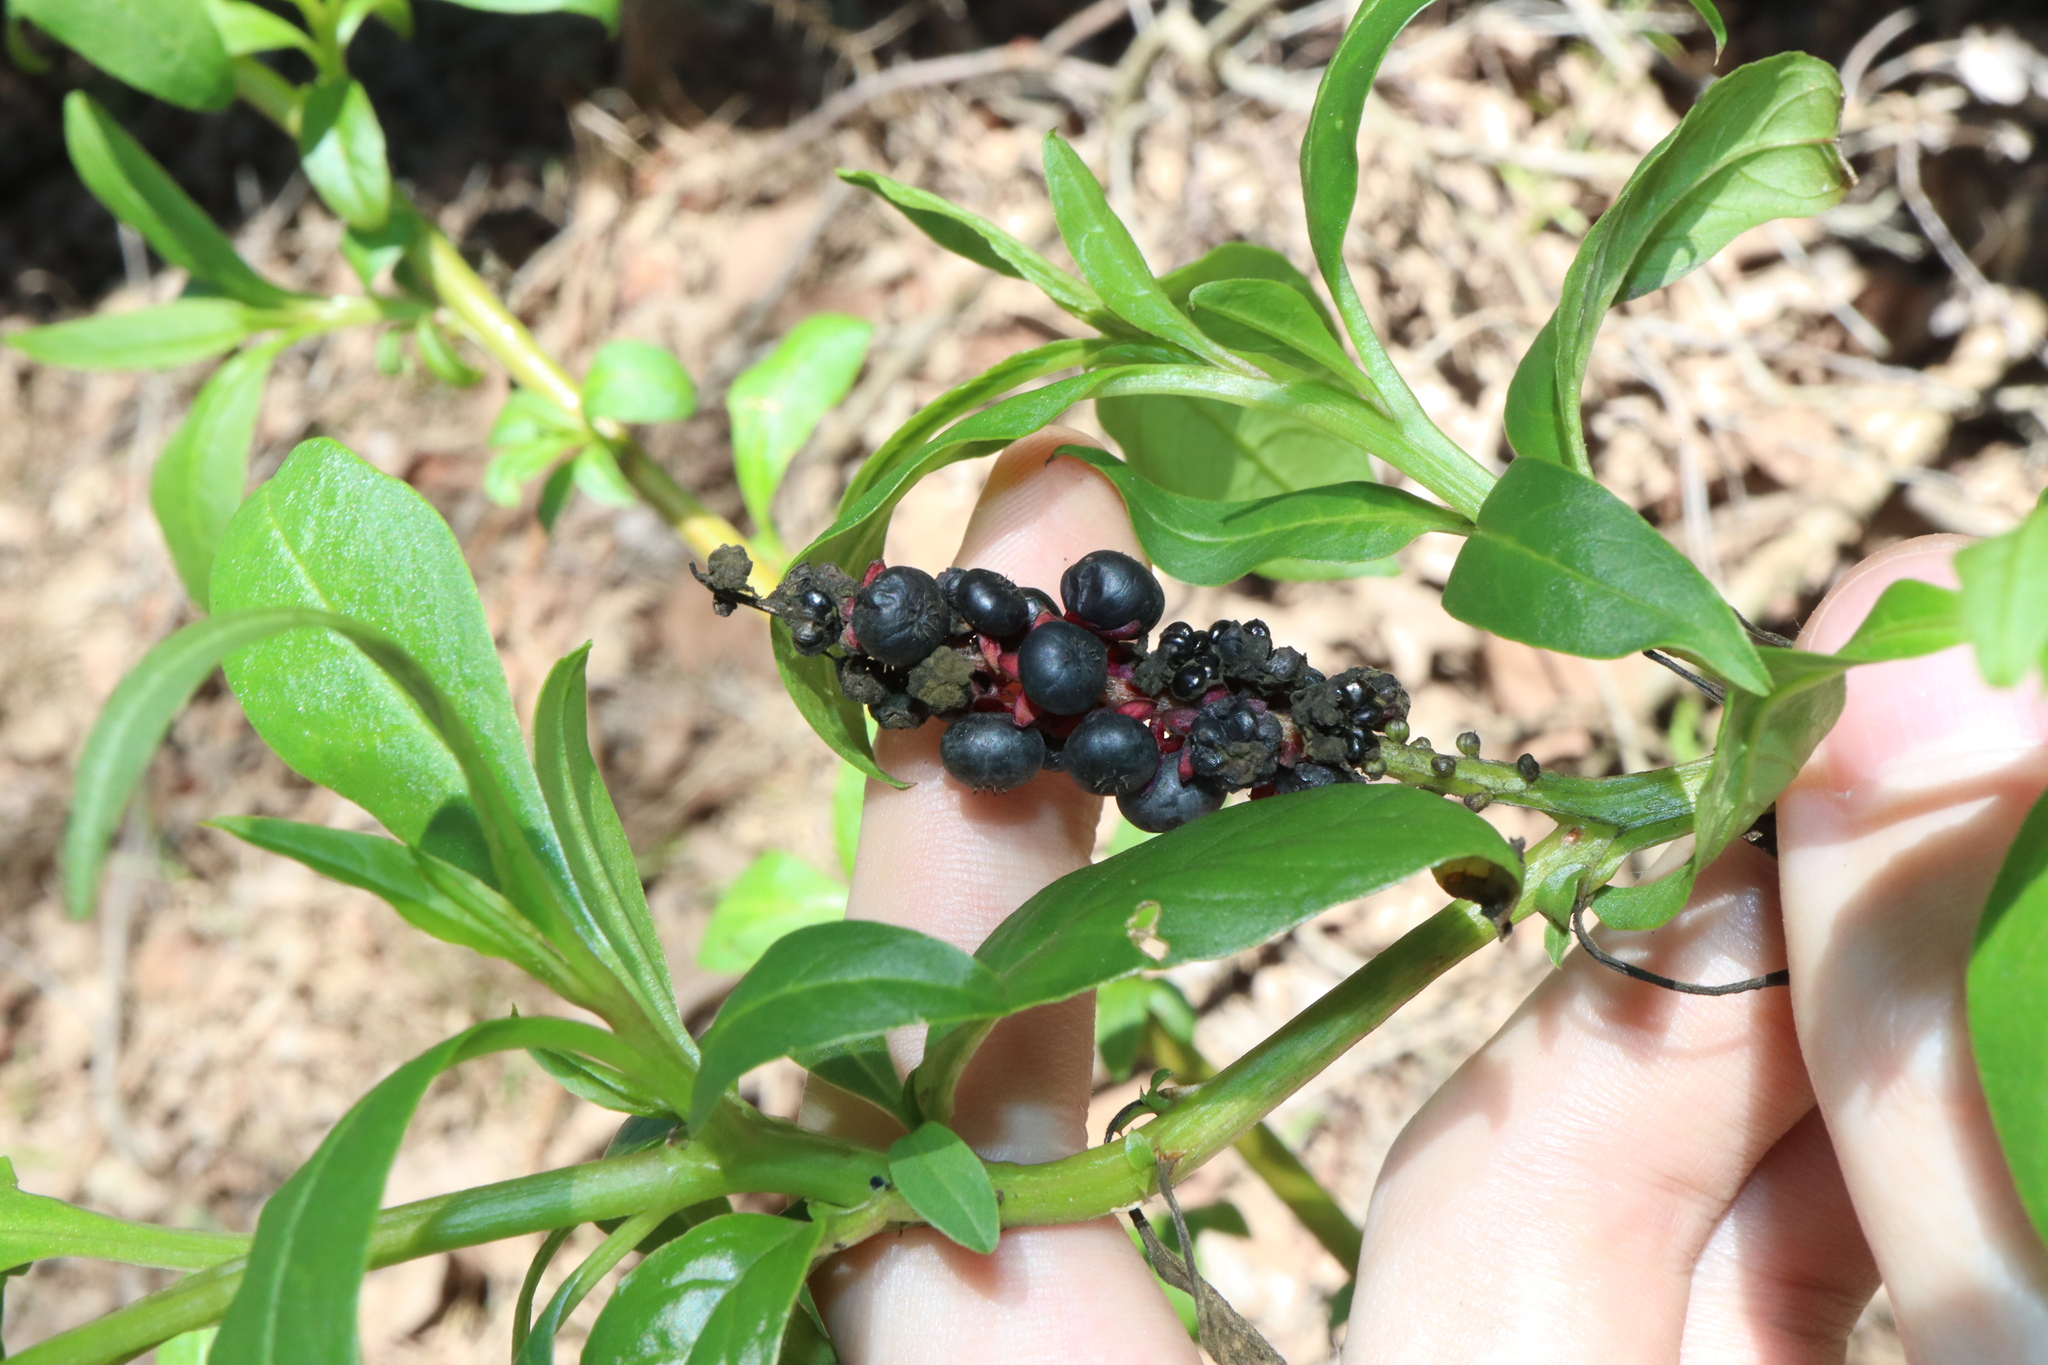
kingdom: Plantae
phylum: Tracheophyta
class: Magnoliopsida
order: Caryophyllales
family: Phytolaccaceae
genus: Phytolacca
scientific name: Phytolacca icosandra
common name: Button pokeweed
